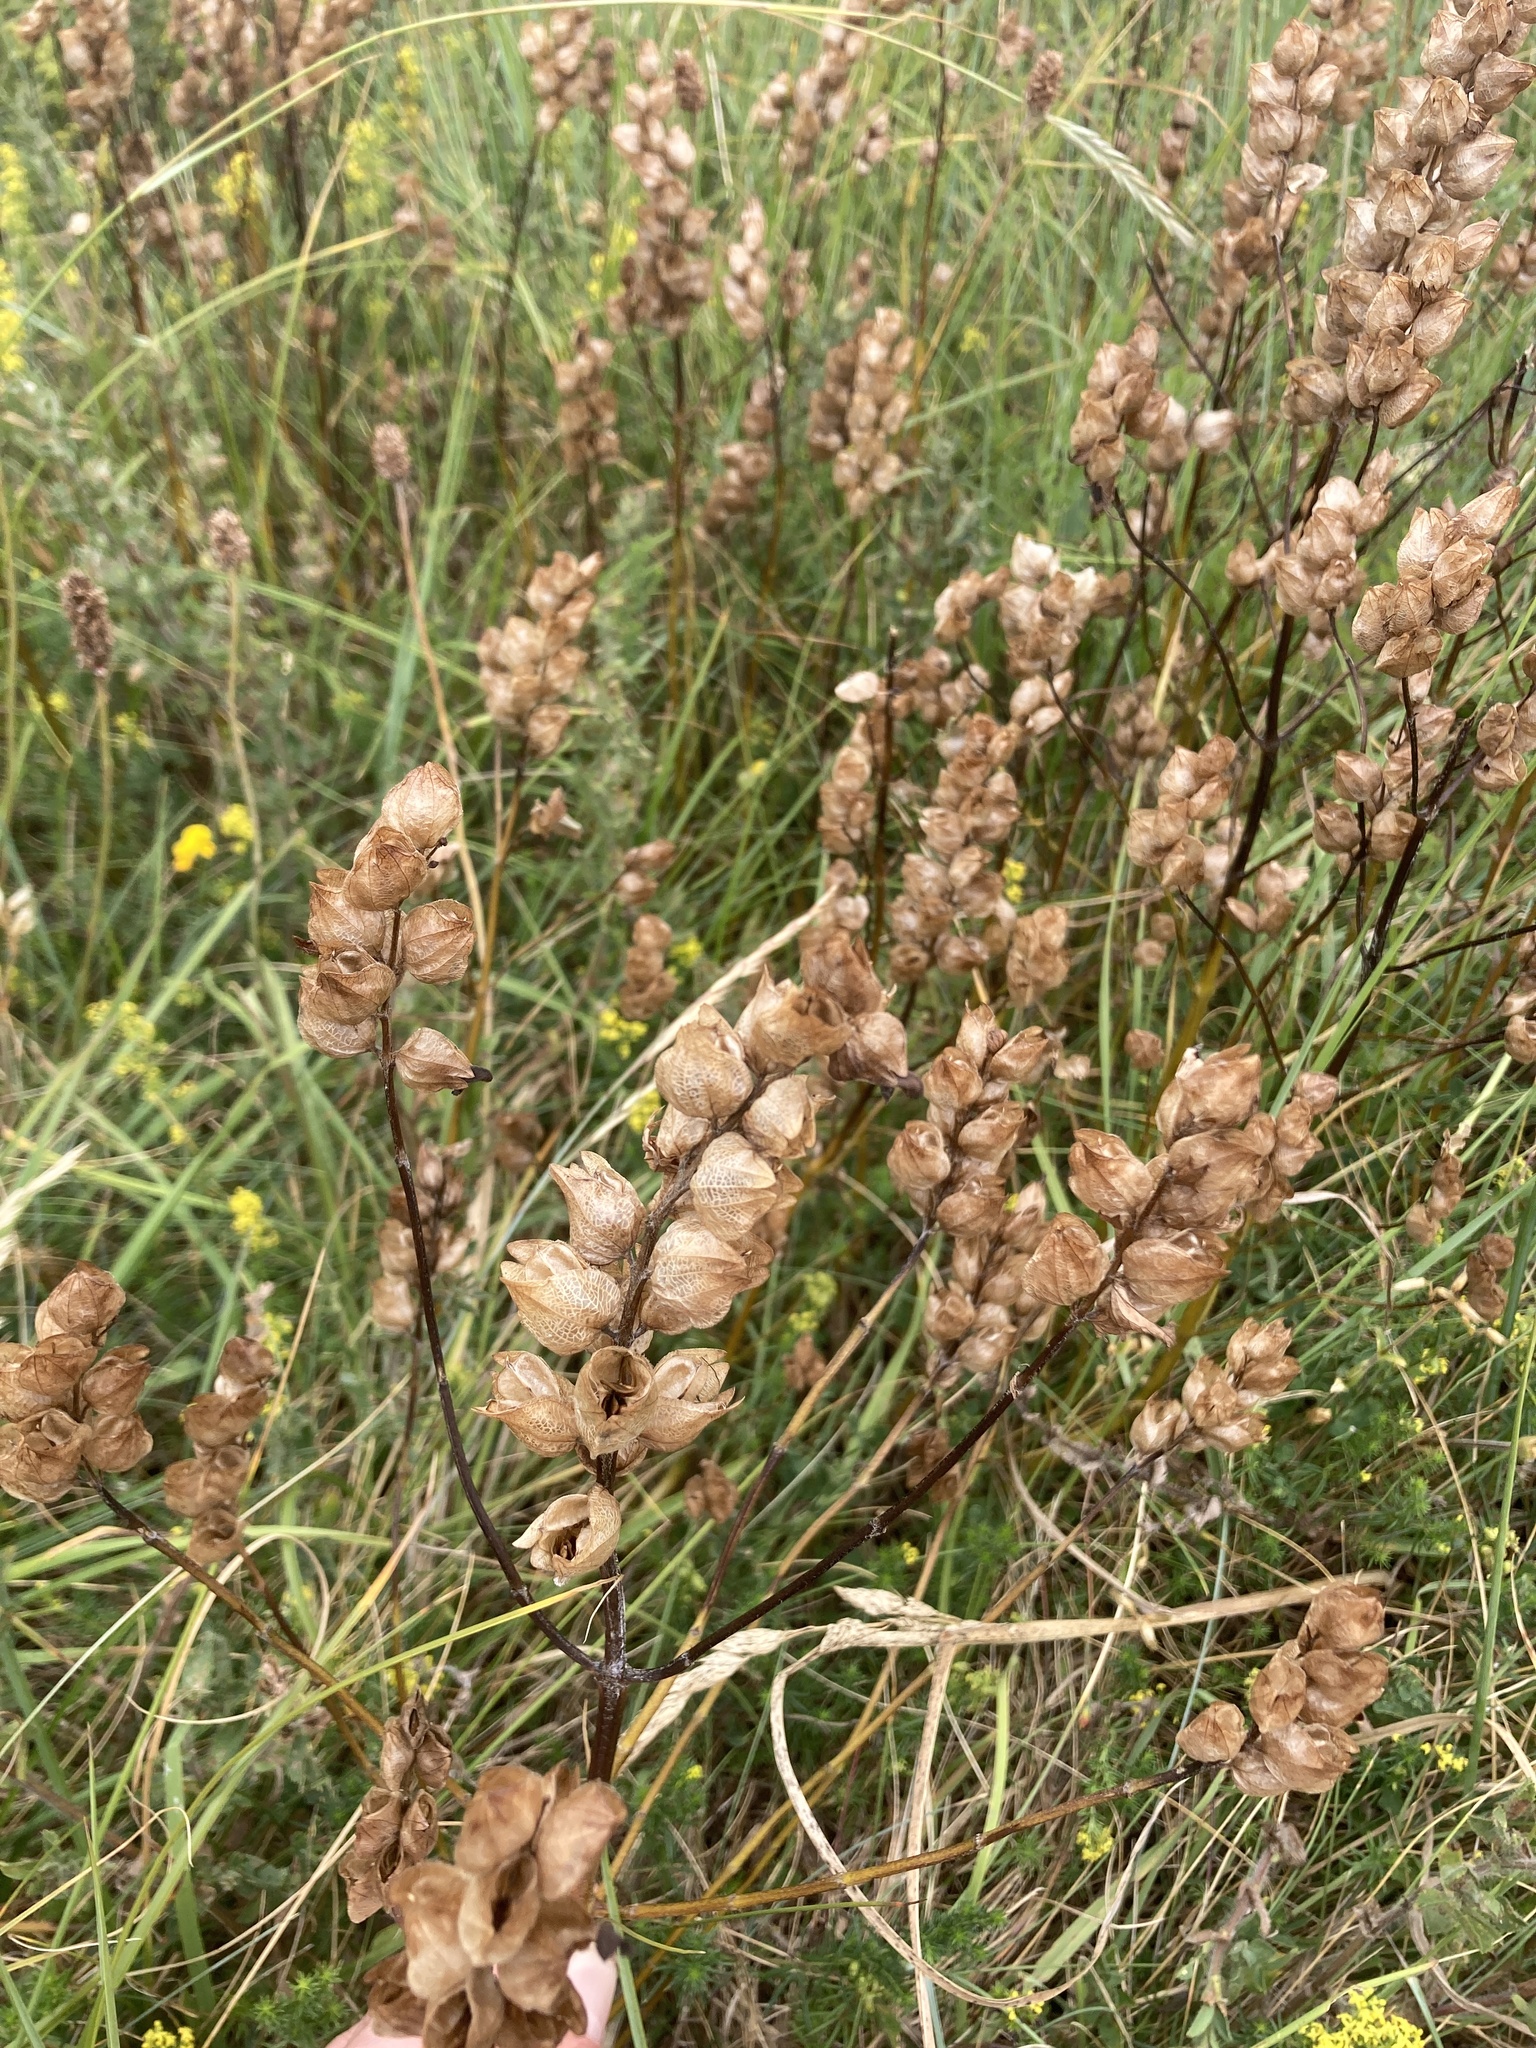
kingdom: Plantae
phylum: Tracheophyta
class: Magnoliopsida
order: Lamiales
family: Orobanchaceae
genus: Rhinanthus
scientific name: Rhinanthus minor
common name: Yellow-rattle
